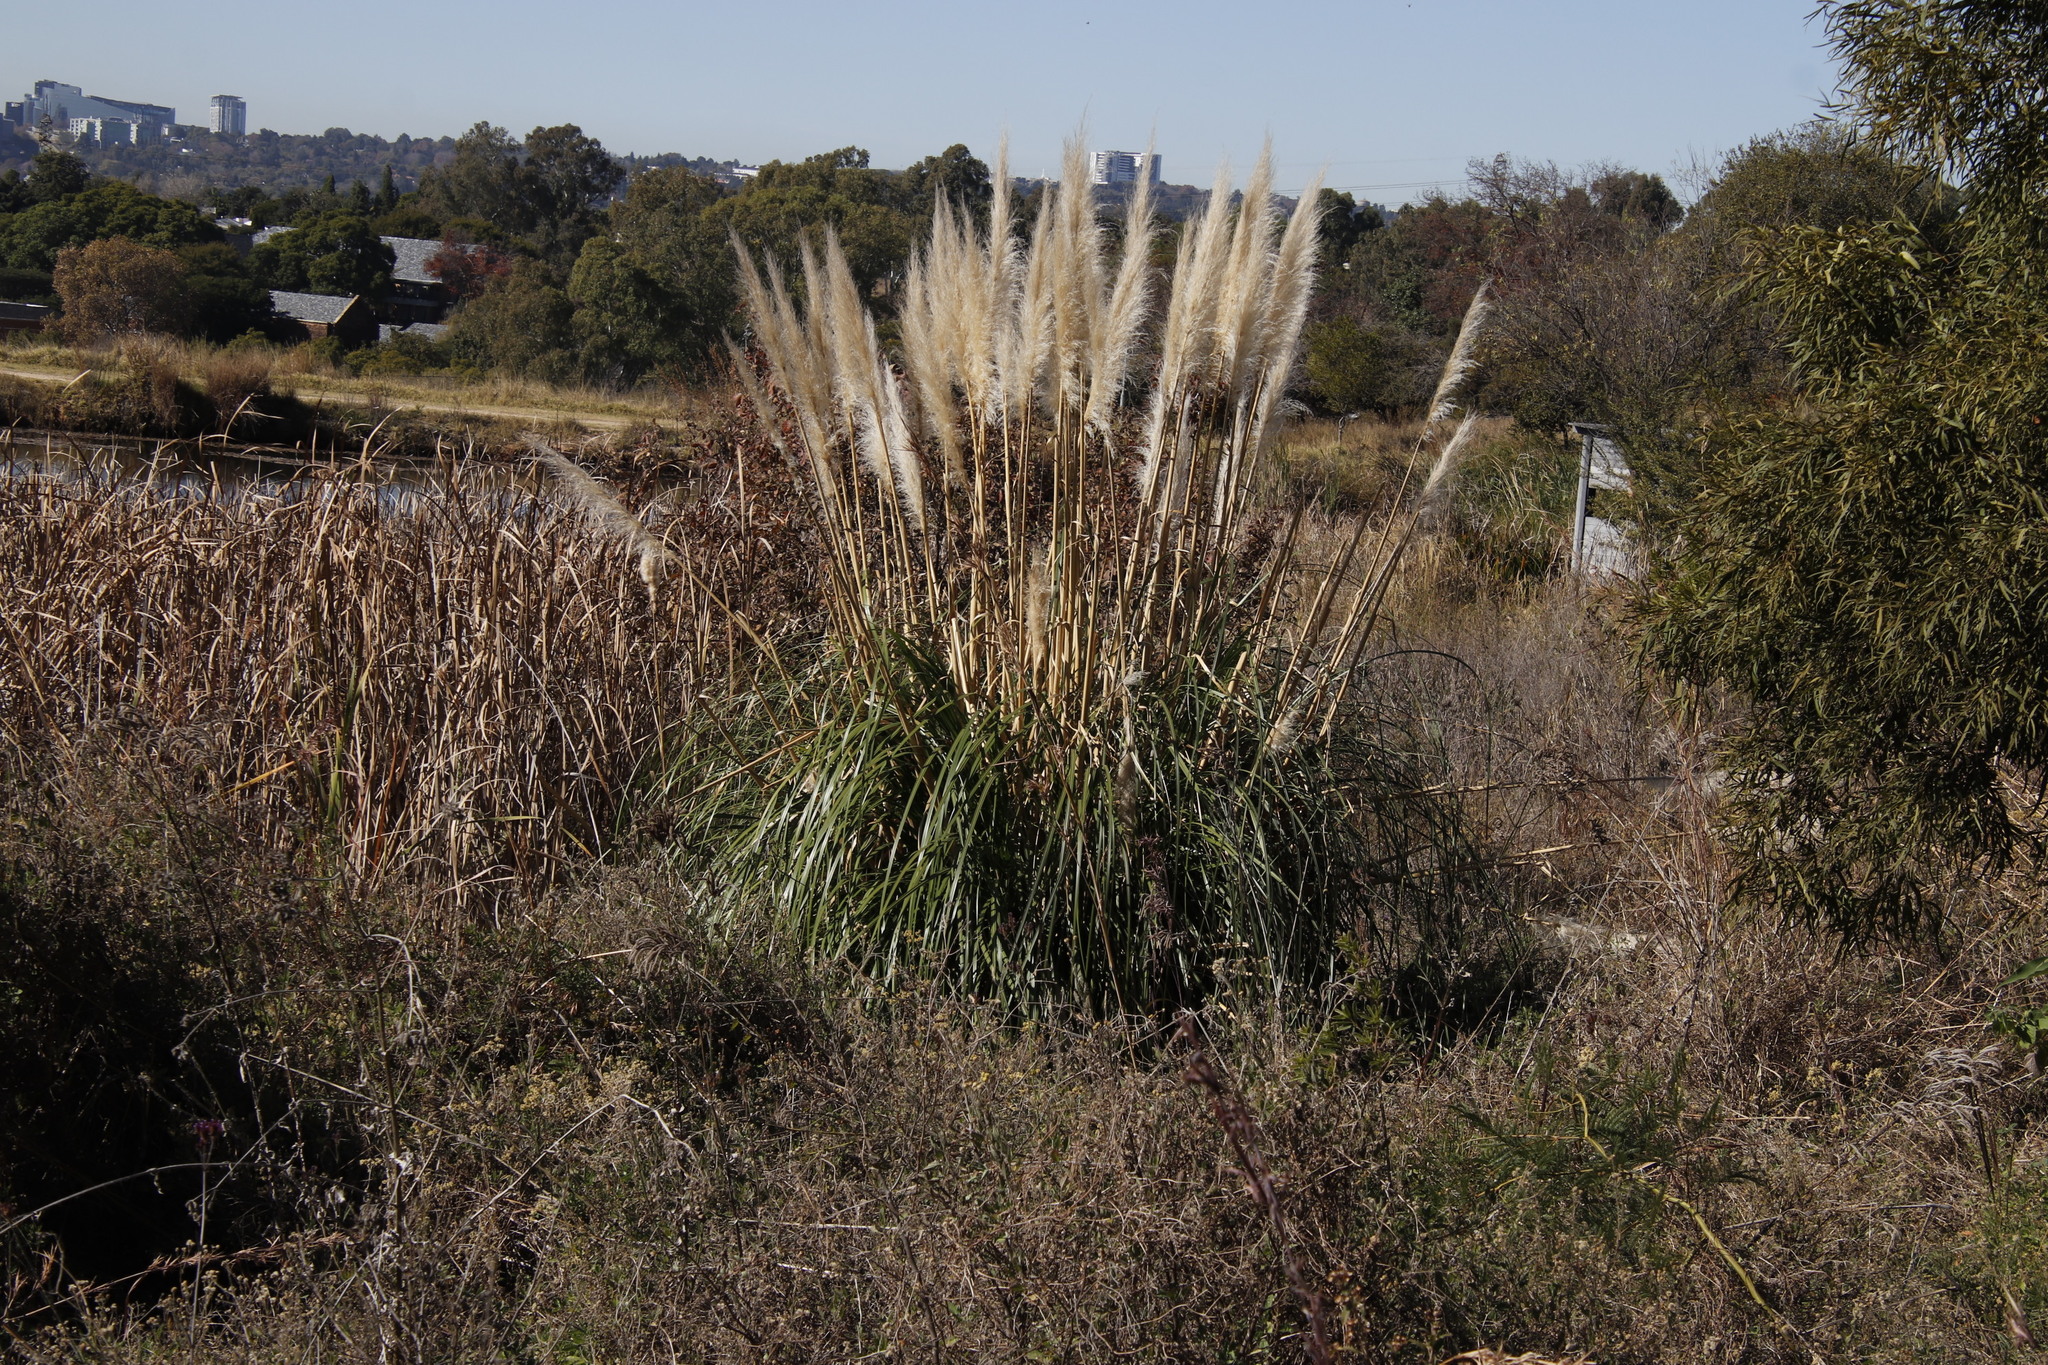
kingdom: Plantae
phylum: Tracheophyta
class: Liliopsida
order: Poales
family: Poaceae
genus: Cortaderia
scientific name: Cortaderia selloana
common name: Uruguayan pampas grass
